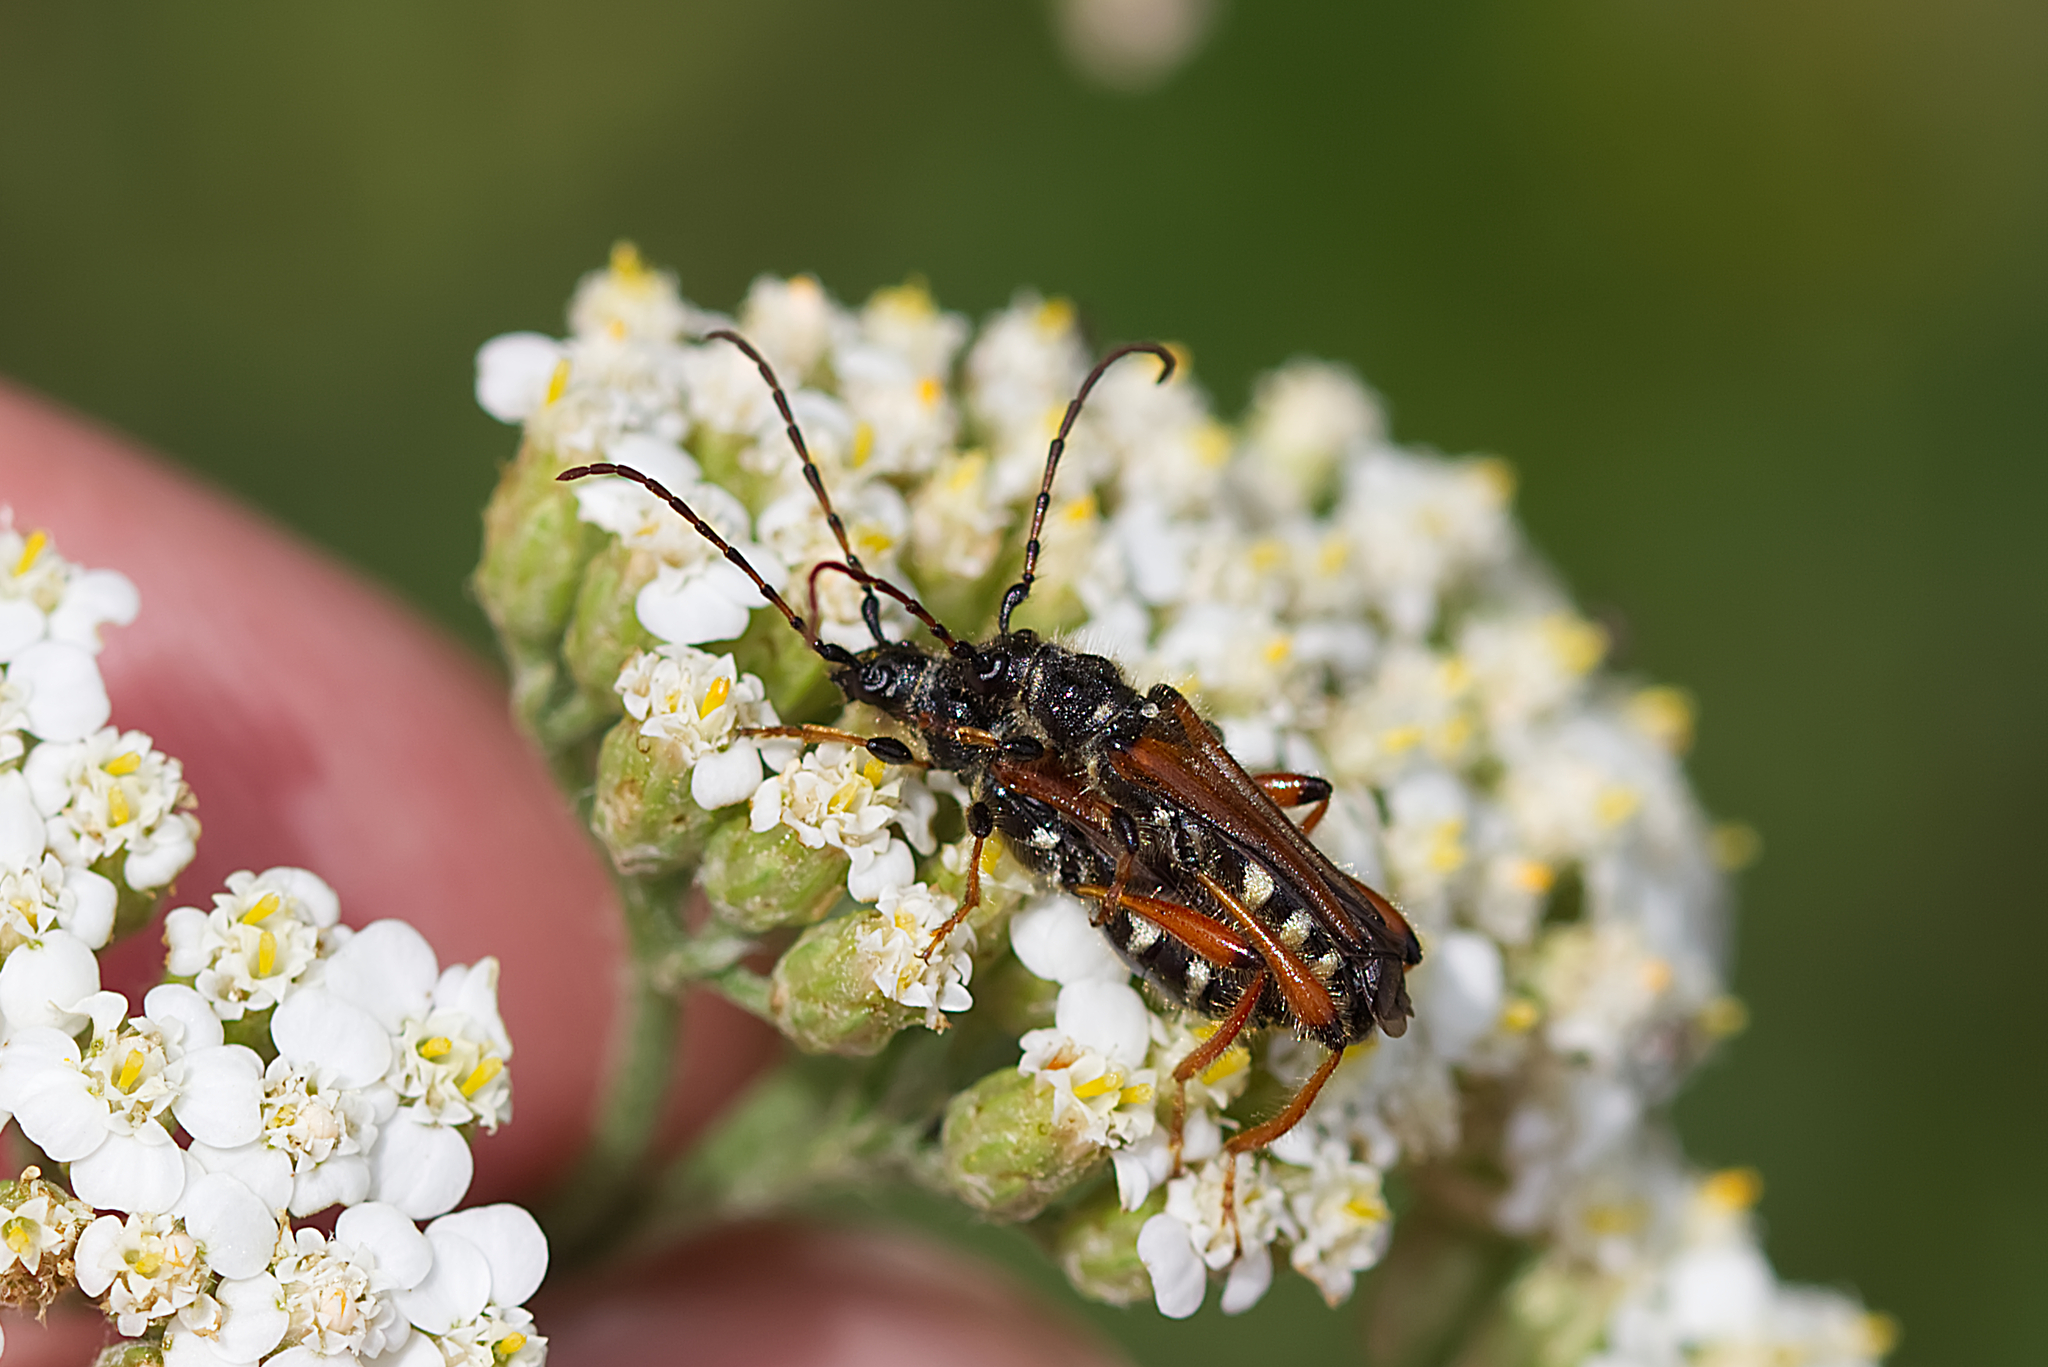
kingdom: Animalia
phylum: Arthropoda
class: Insecta
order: Coleoptera
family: Cerambycidae
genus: Stenopterus
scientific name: Stenopterus rufus
